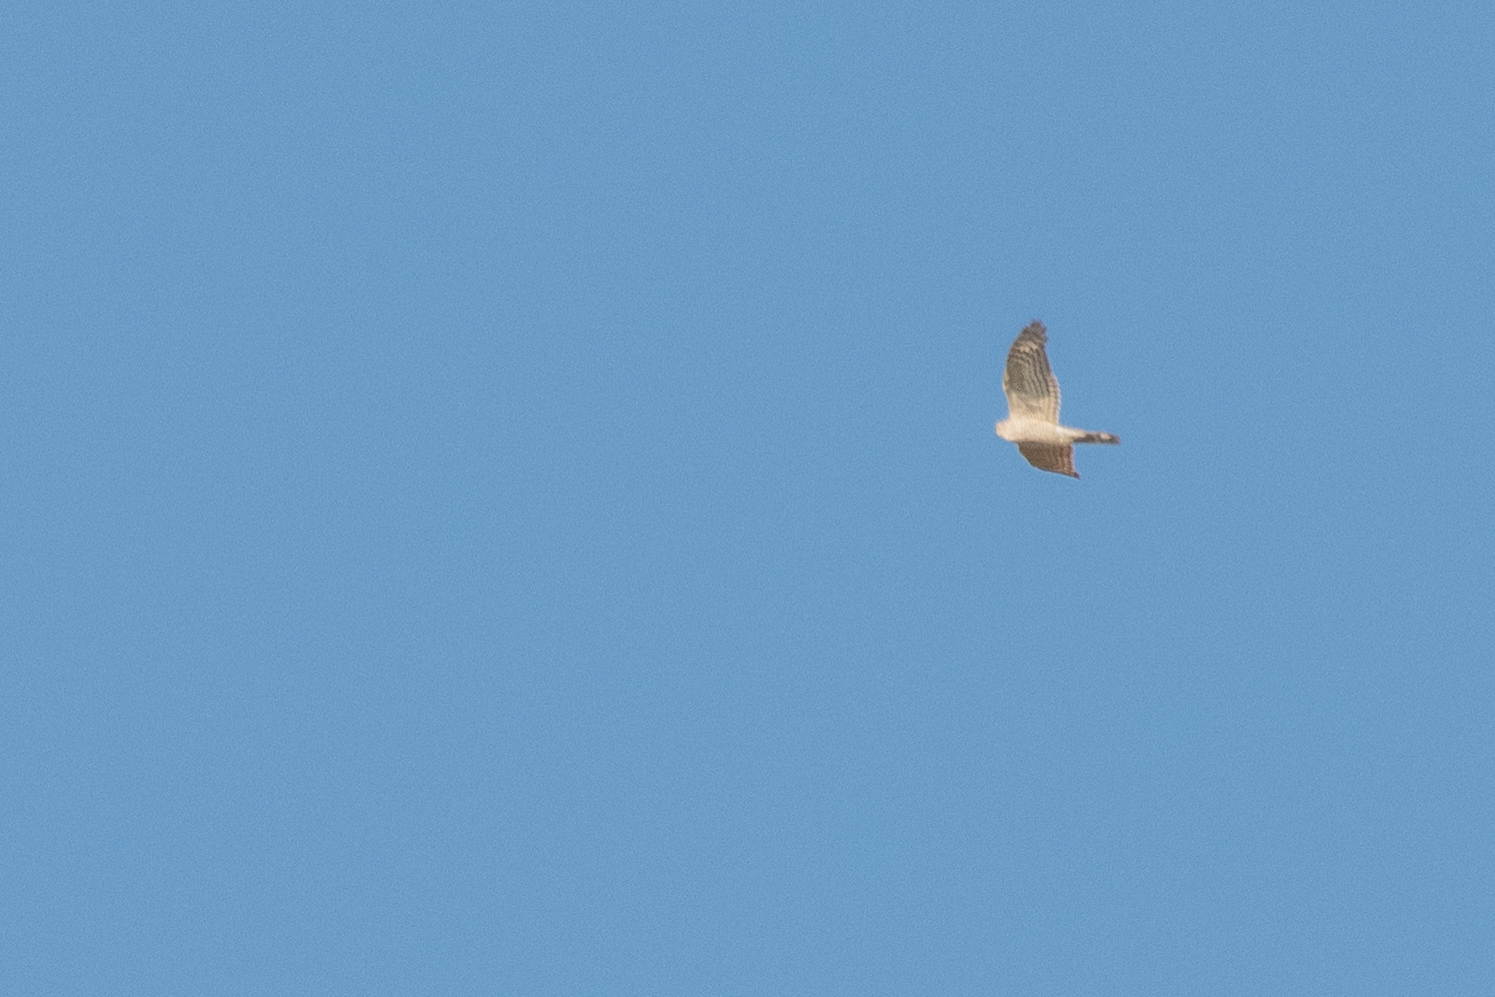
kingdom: Animalia
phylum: Chordata
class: Aves
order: Accipitriformes
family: Accipitridae
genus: Accipiter
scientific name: Accipiter nisus
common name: Eurasian sparrowhawk
